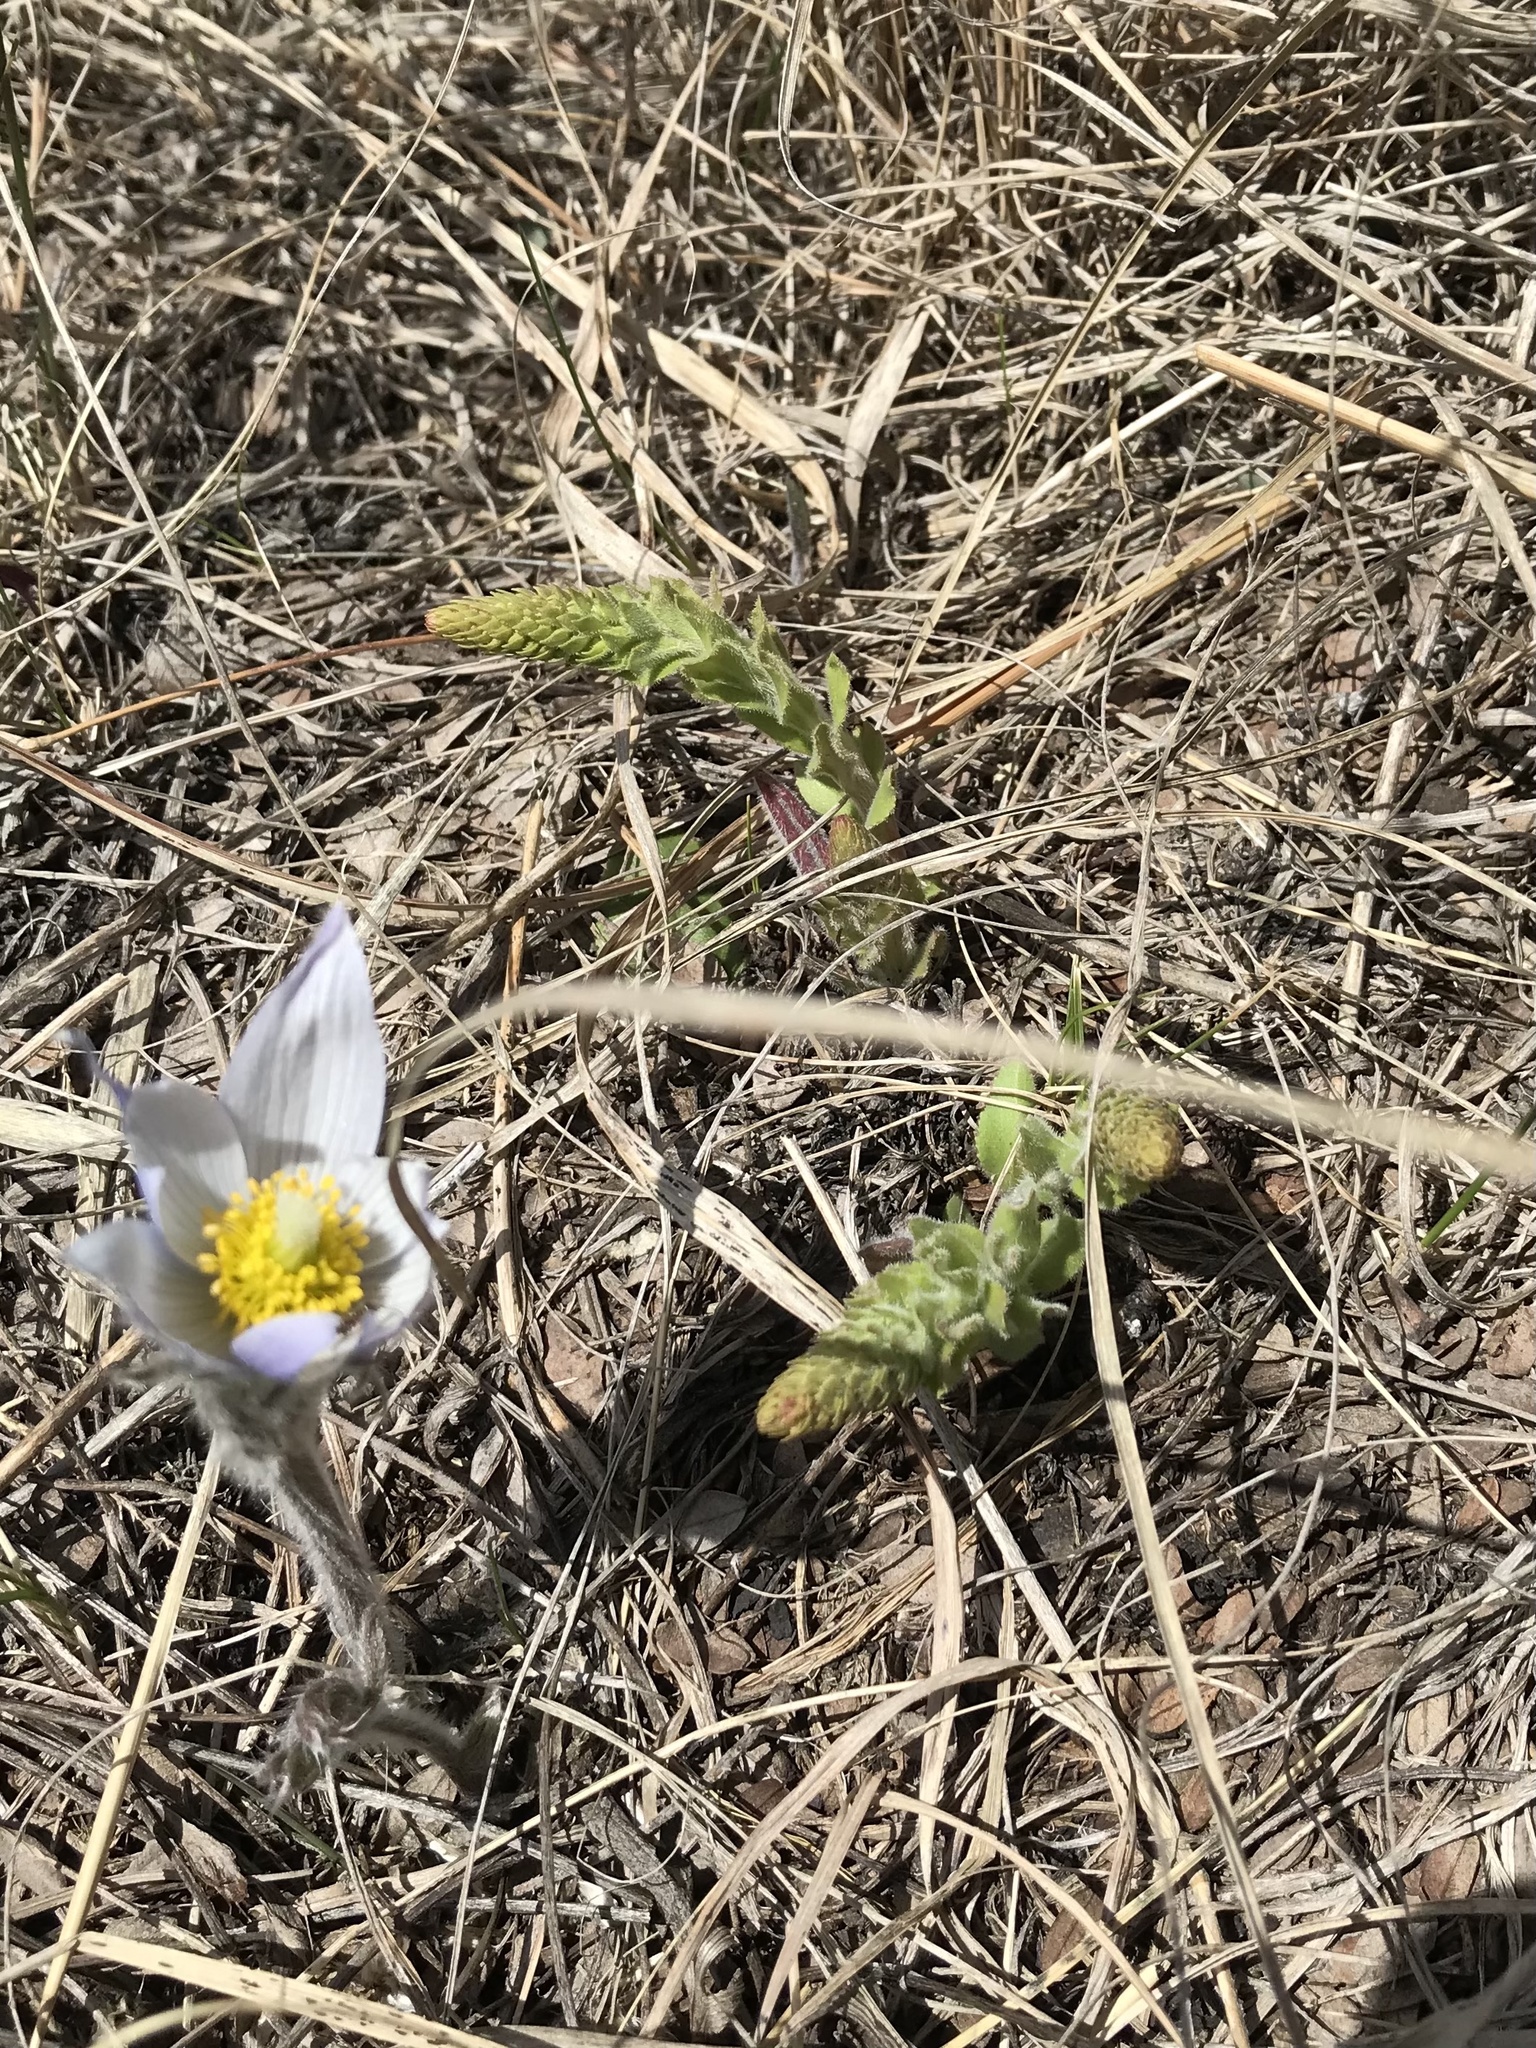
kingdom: Plantae
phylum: Tracheophyta
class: Magnoliopsida
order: Lamiales
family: Plantaginaceae
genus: Synthyris
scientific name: Synthyris bullii
